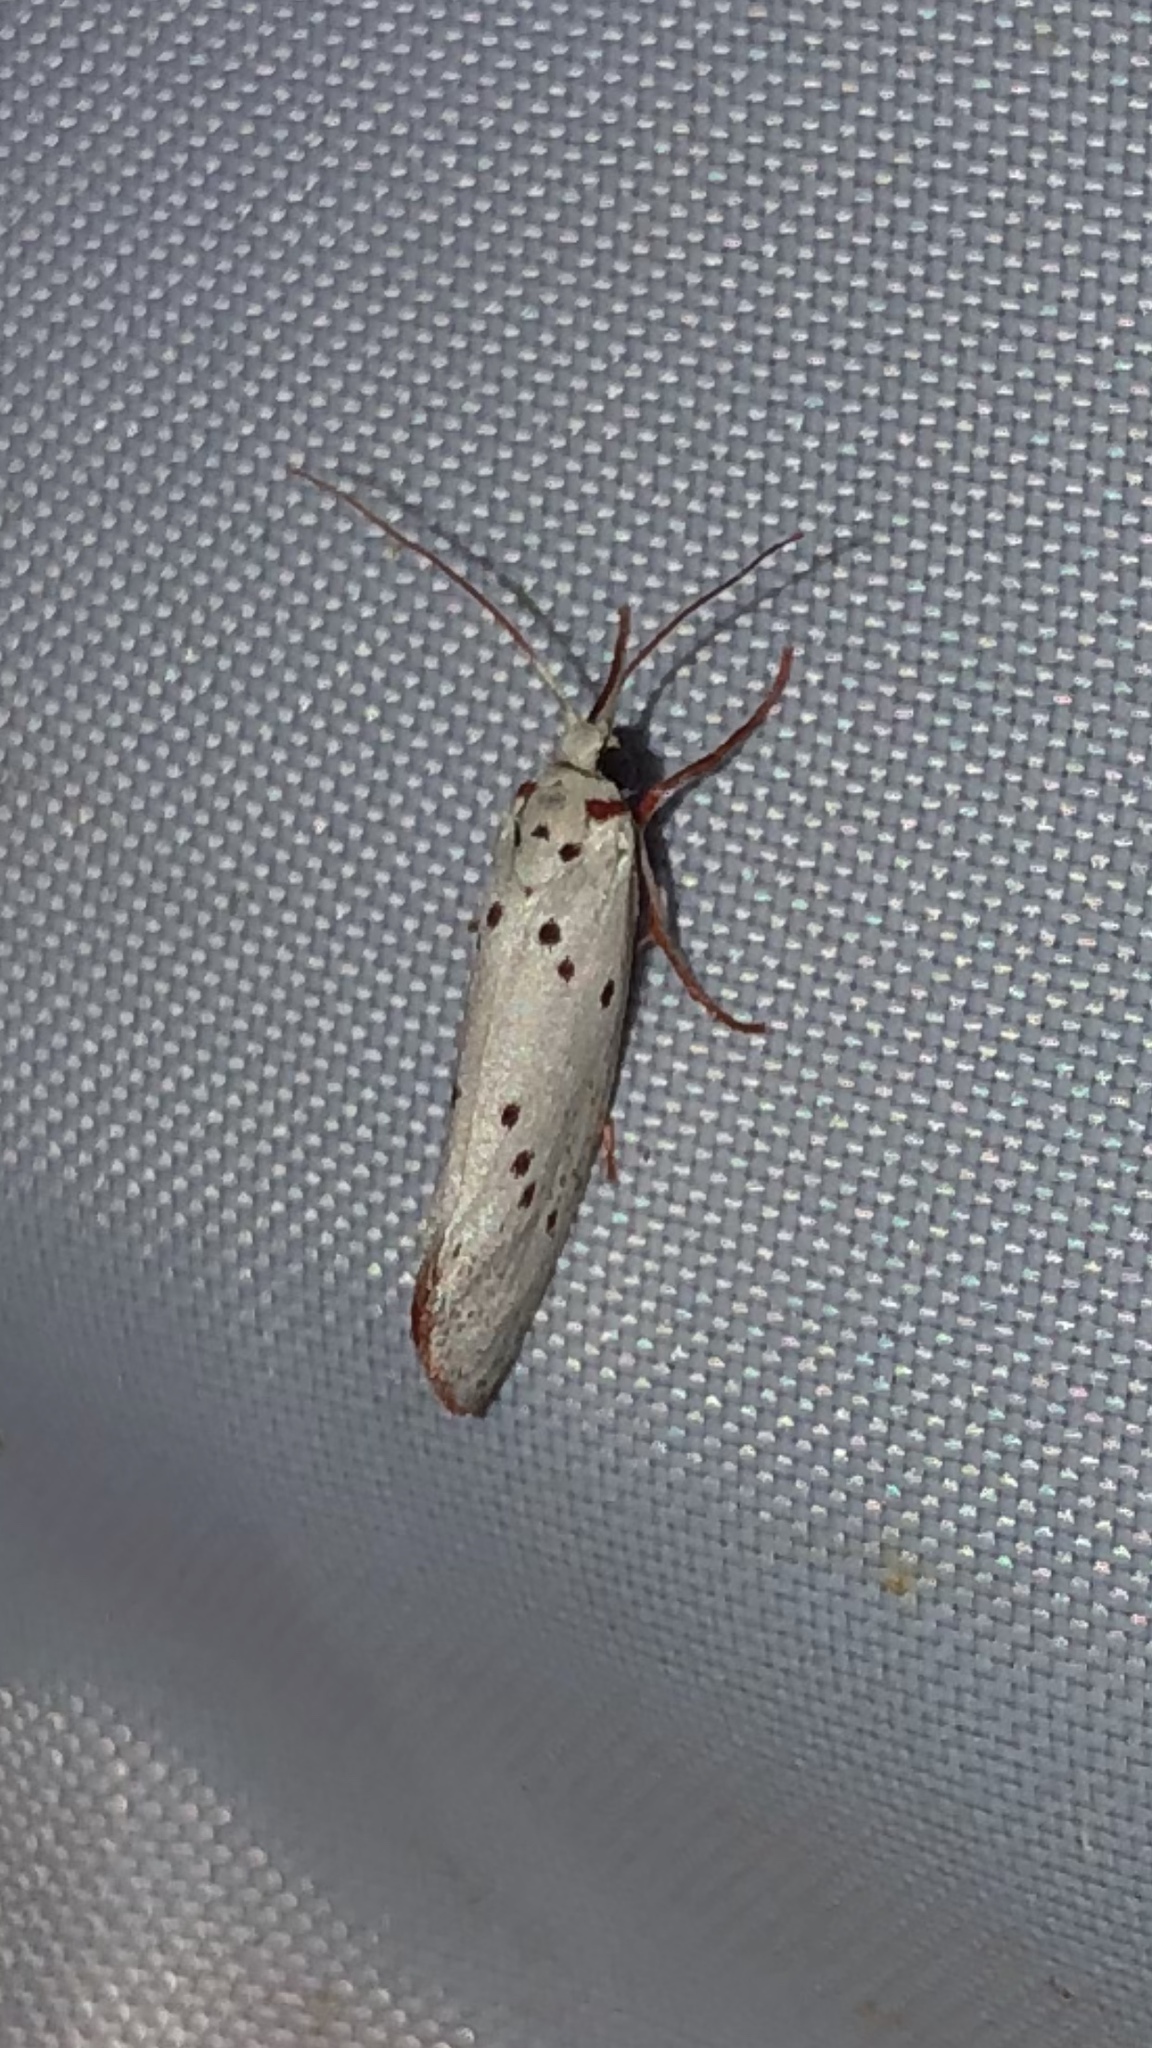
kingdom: Animalia
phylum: Arthropoda
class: Insecta
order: Lepidoptera
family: Lacturidae
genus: Lactura
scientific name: Lactura
